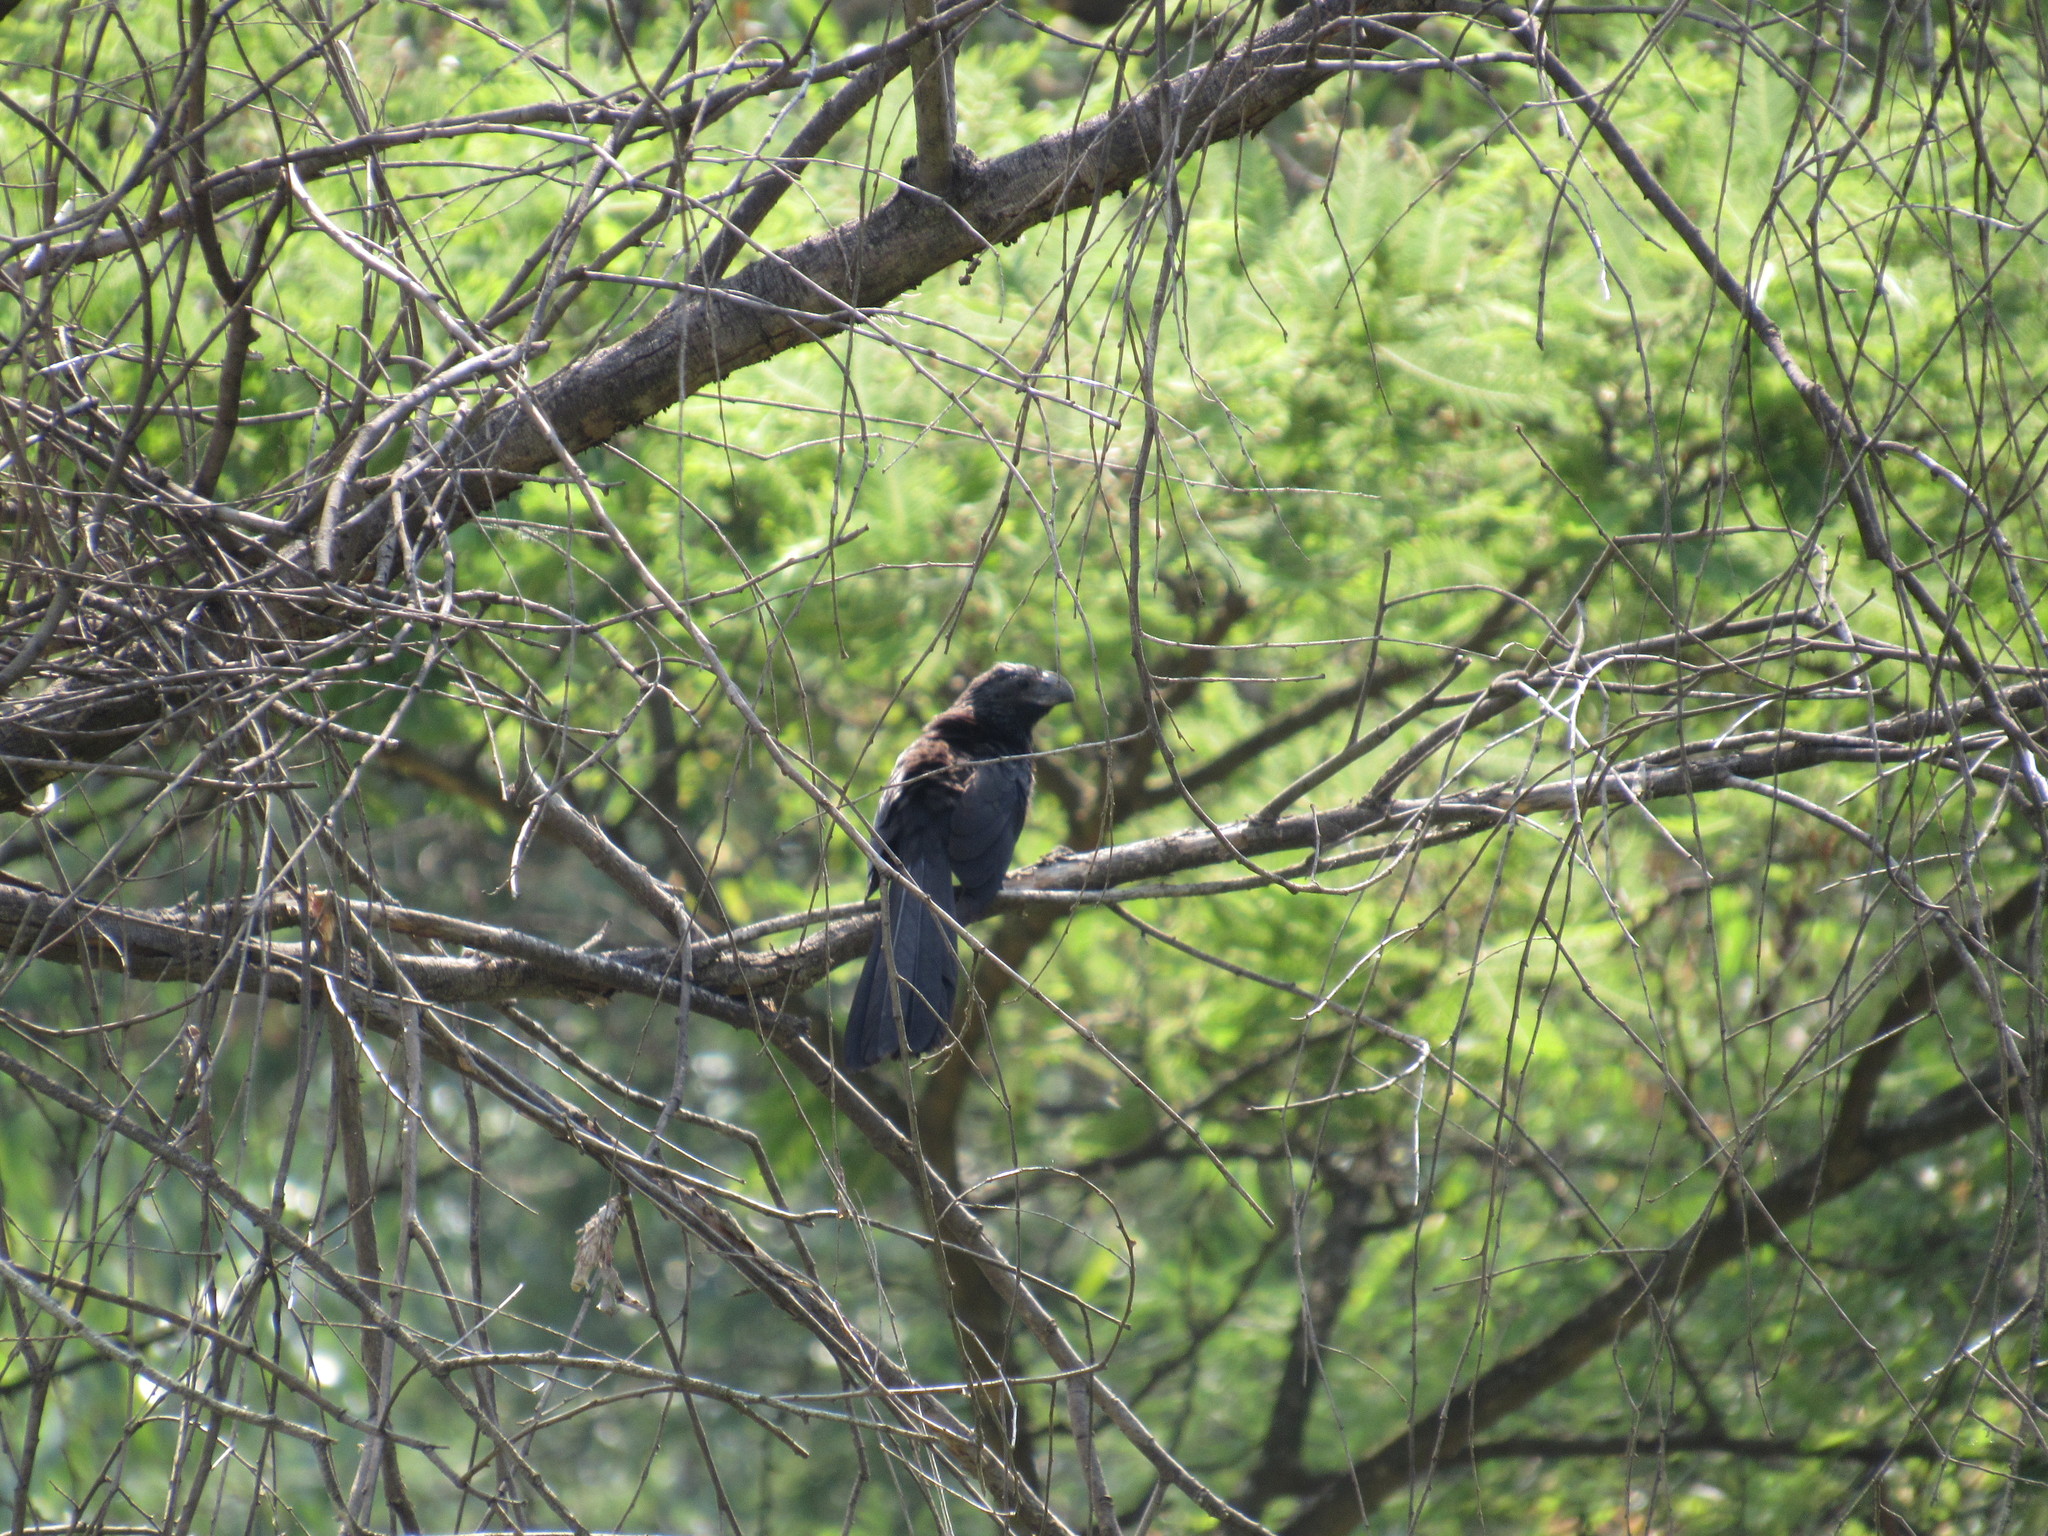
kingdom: Animalia
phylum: Chordata
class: Aves
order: Cuculiformes
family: Cuculidae
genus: Crotophaga
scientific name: Crotophaga sulcirostris
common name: Groove-billed ani
